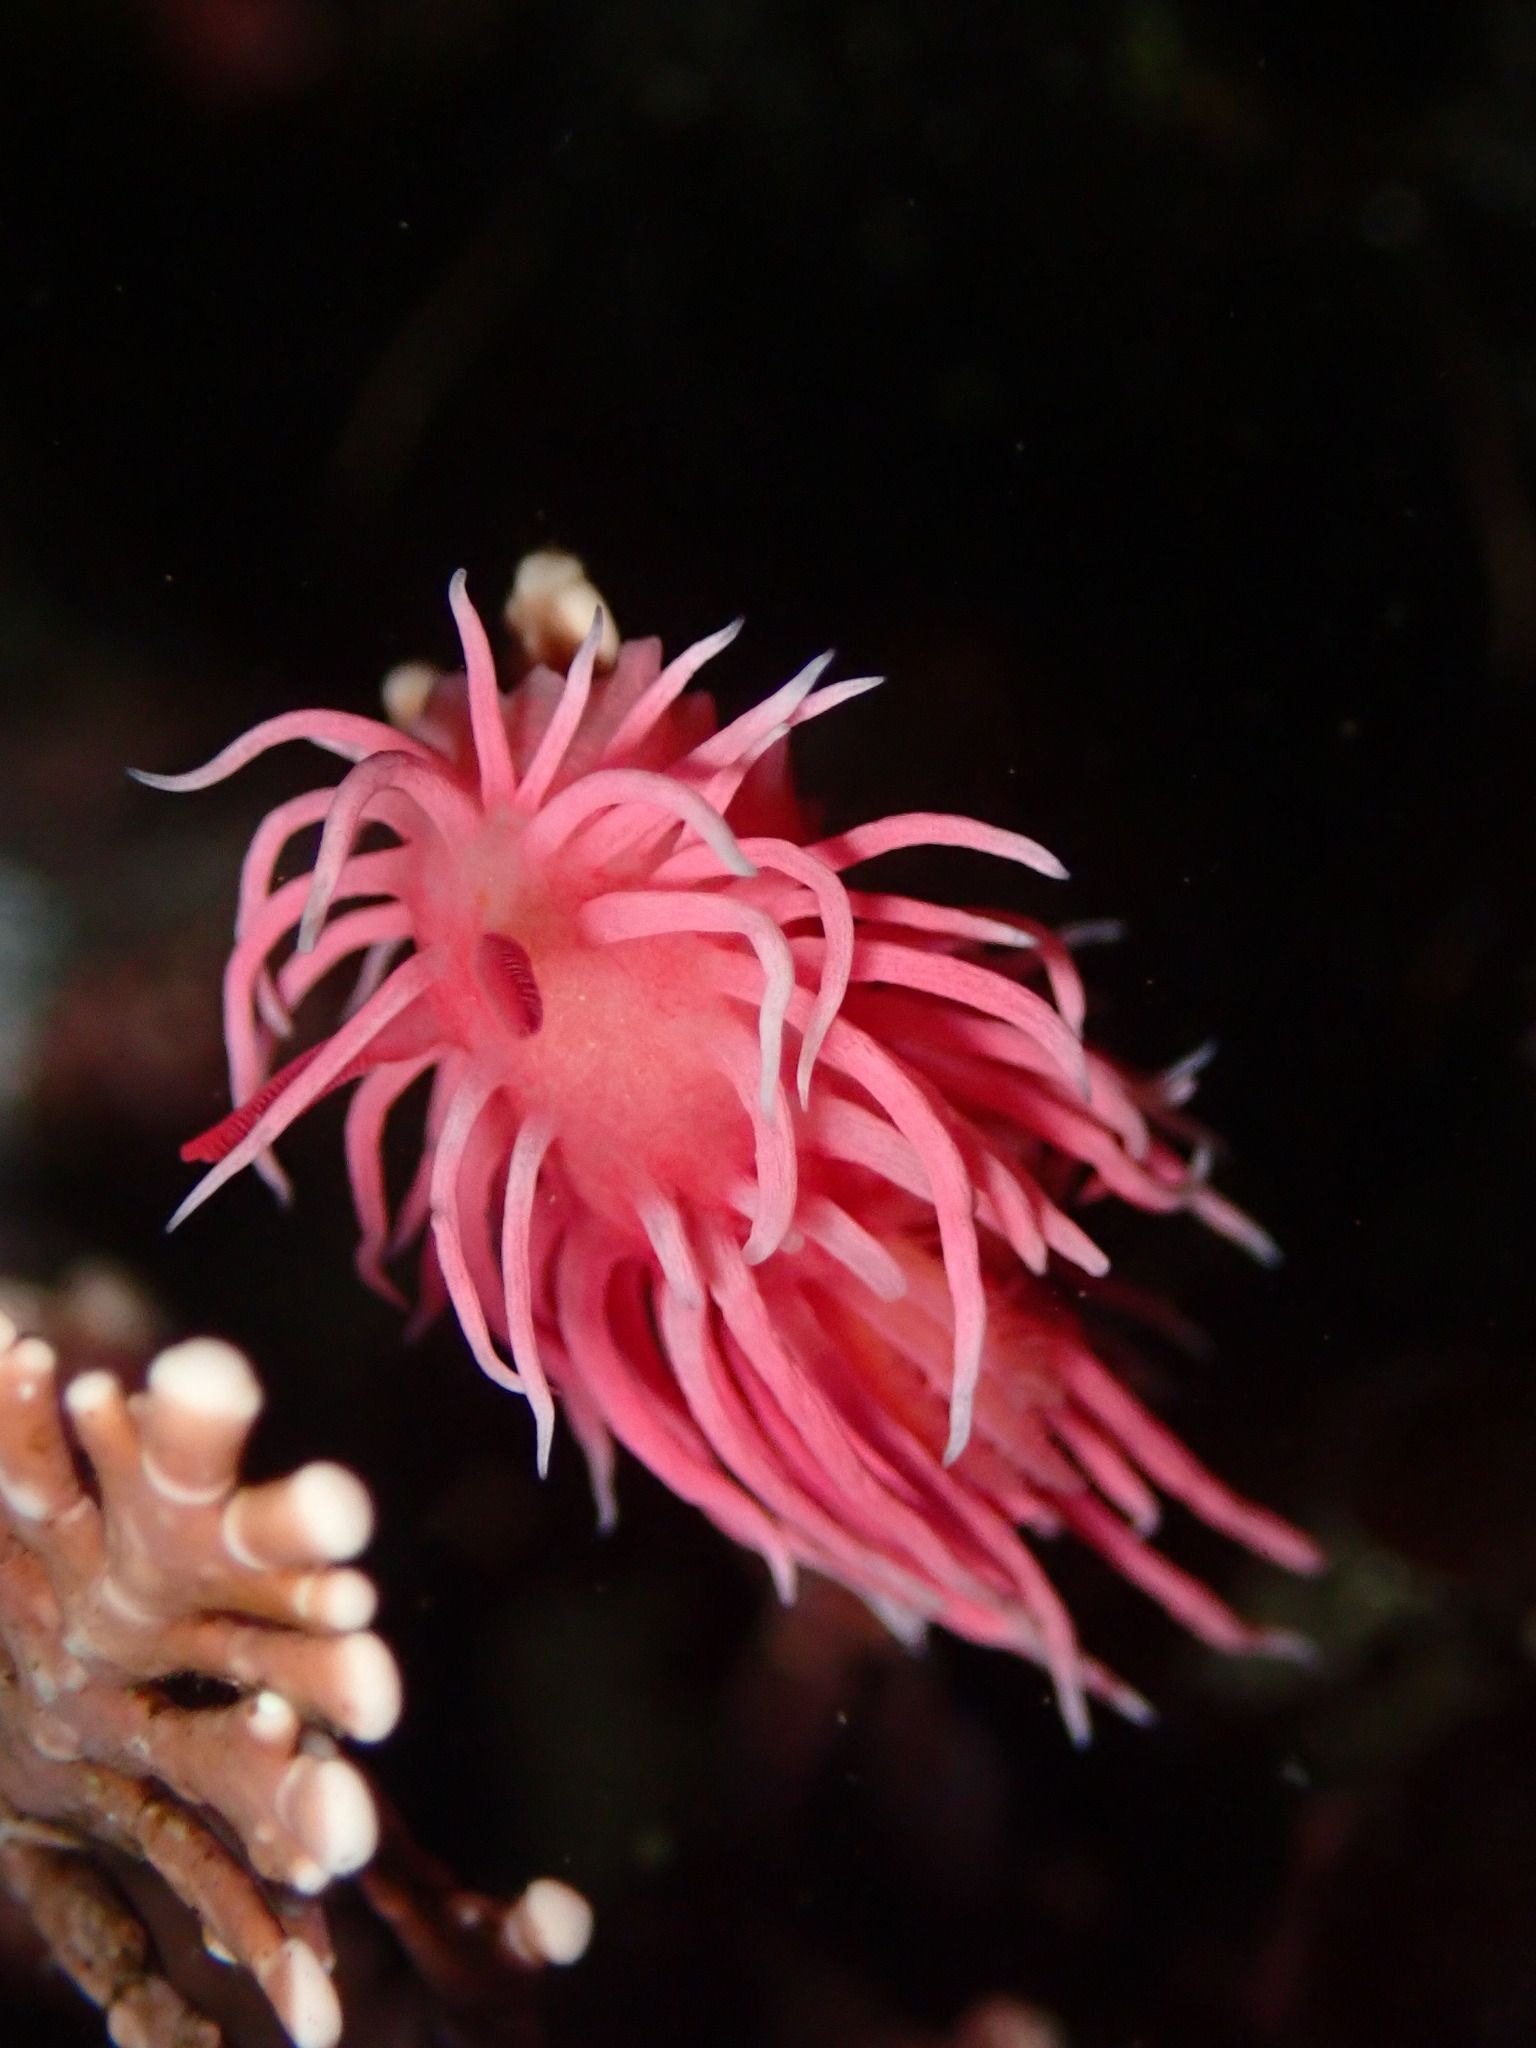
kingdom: Animalia
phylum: Mollusca
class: Gastropoda
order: Nudibranchia
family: Goniodorididae
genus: Okenia
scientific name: Okenia
